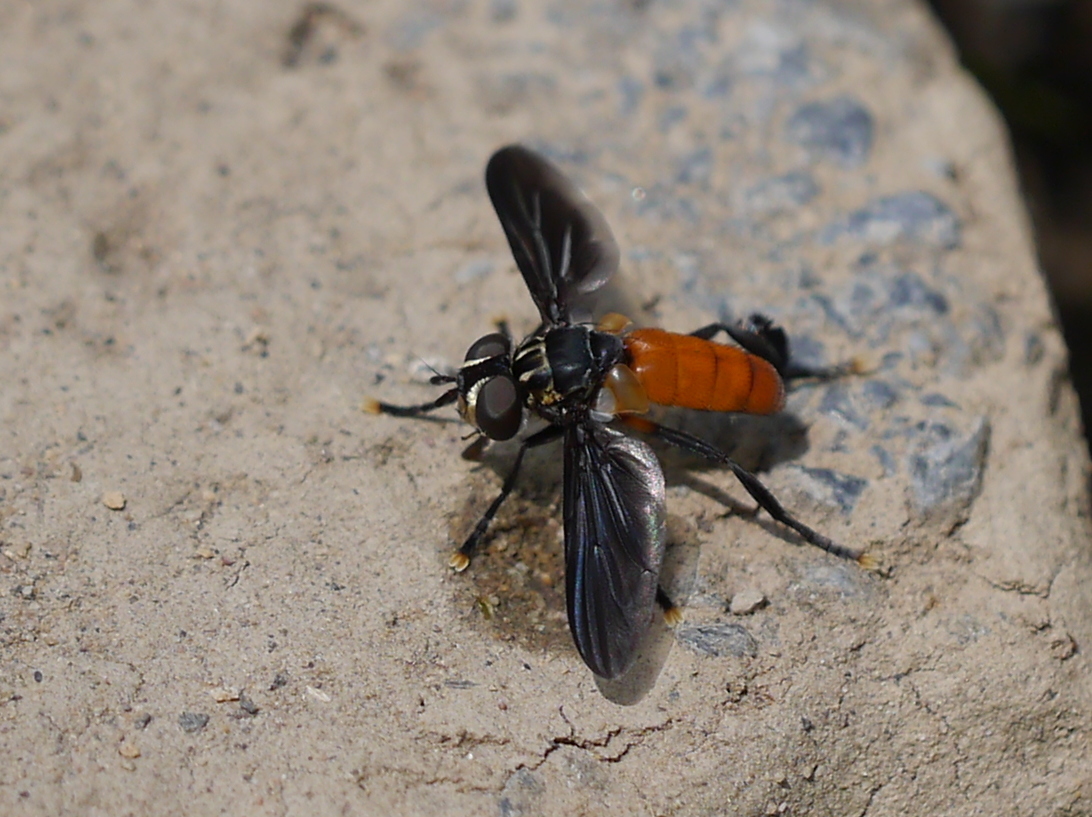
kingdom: Animalia
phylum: Arthropoda
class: Insecta
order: Diptera
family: Tachinidae
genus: Trichopoda
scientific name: Trichopoda pennipes
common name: Tachinid fly
